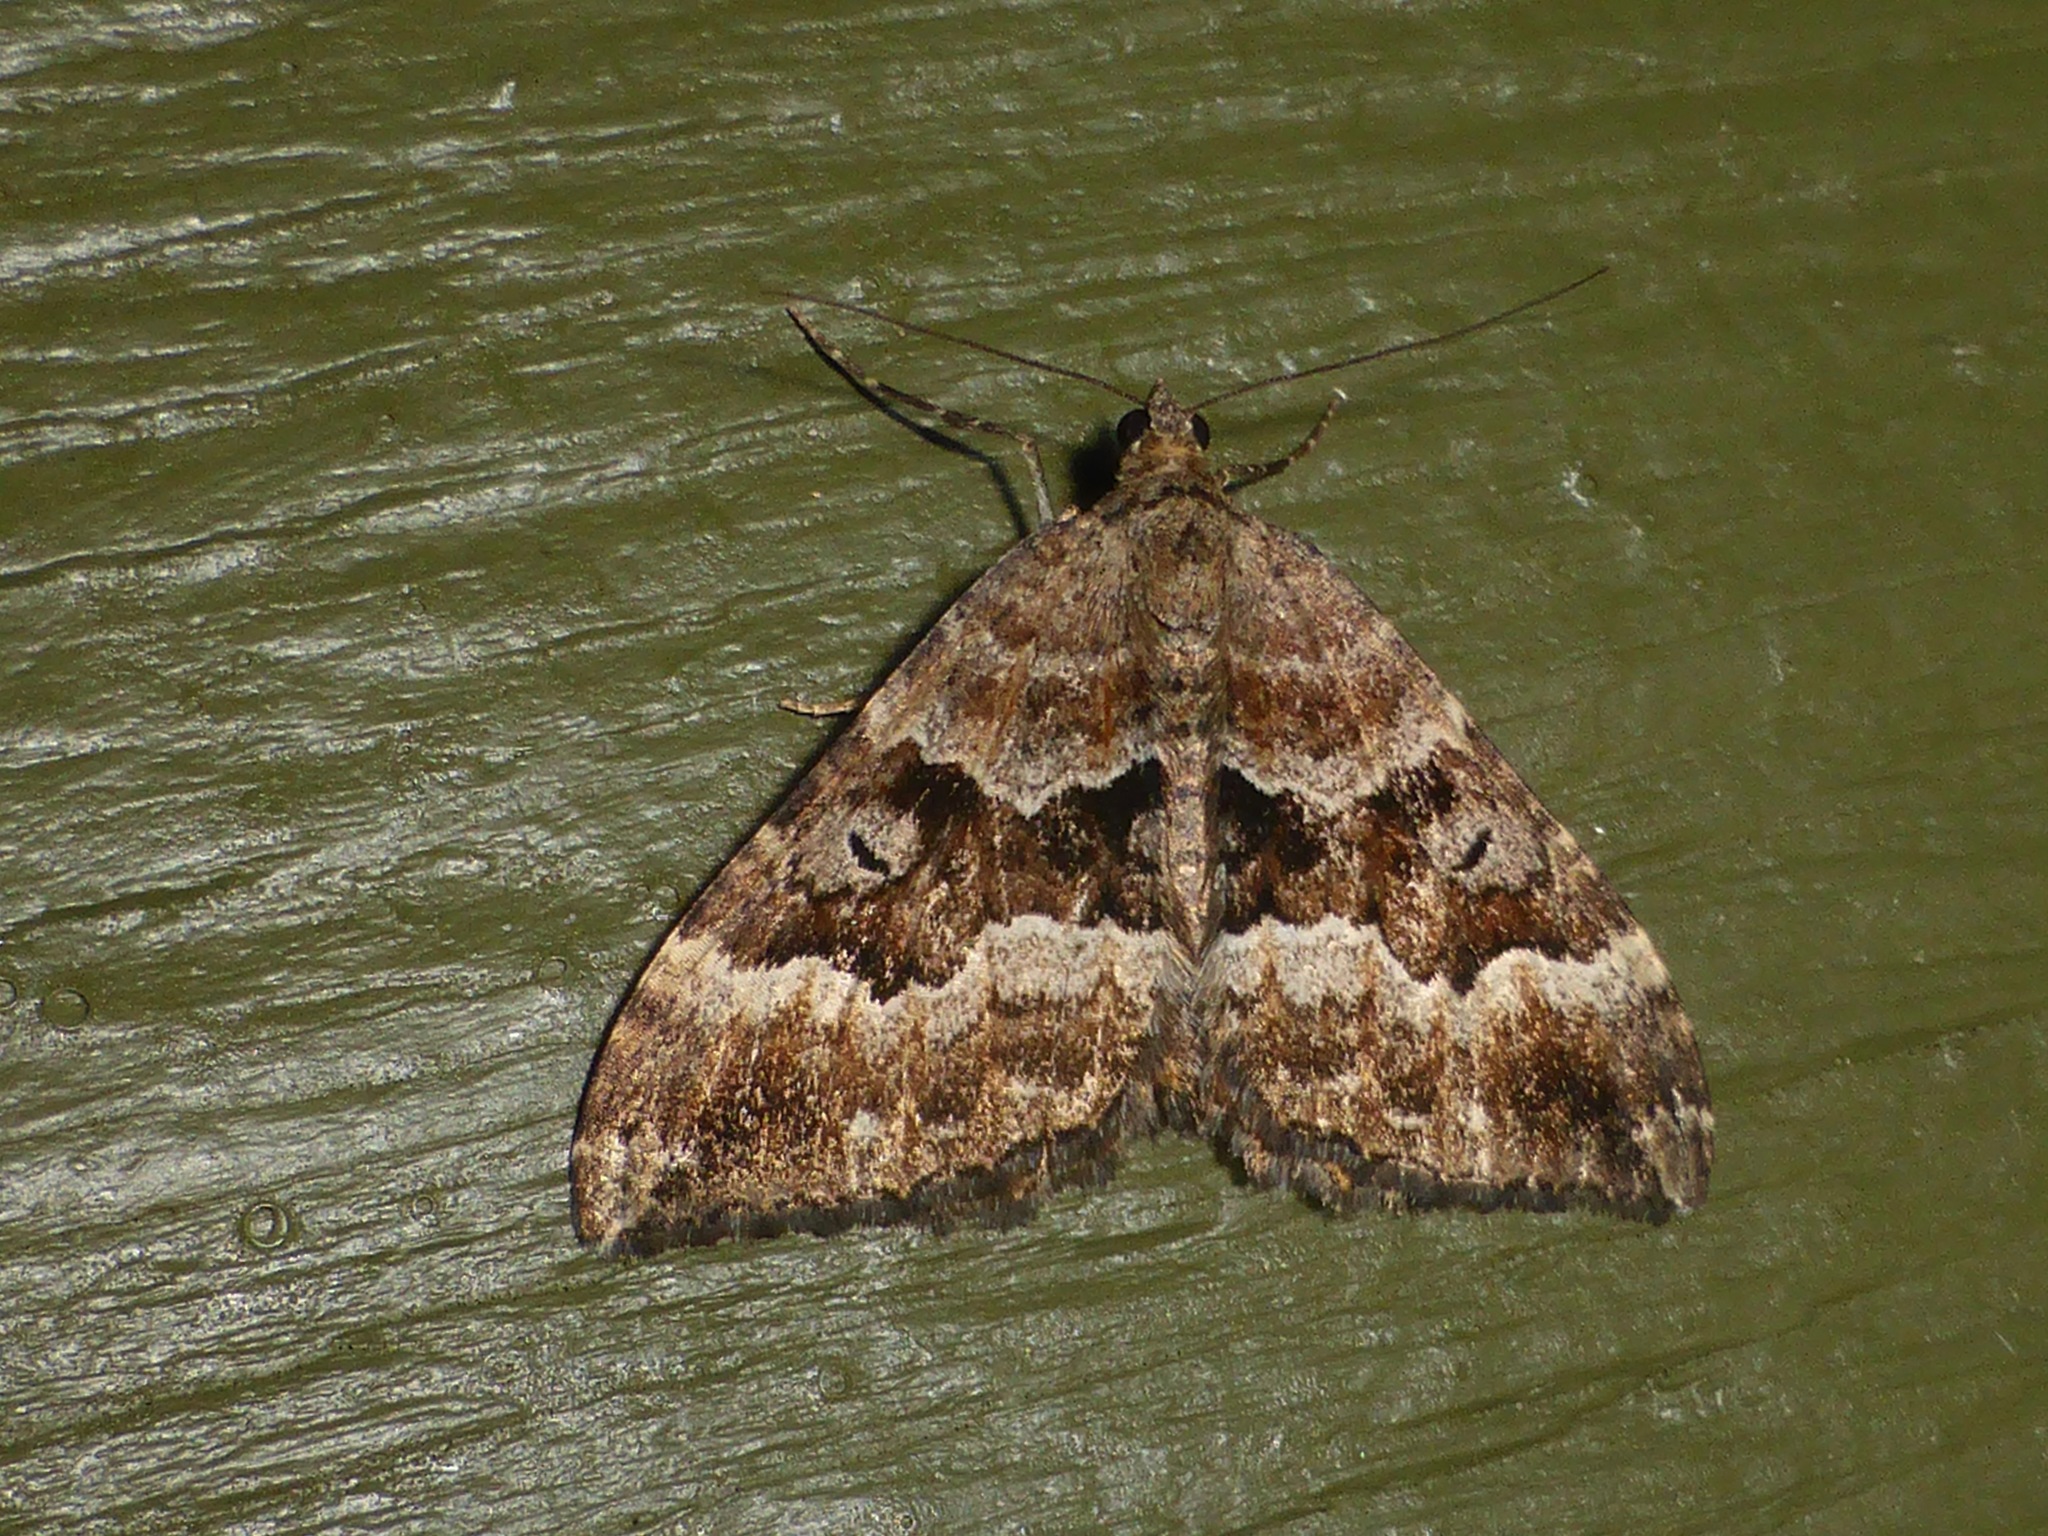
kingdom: Animalia
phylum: Arthropoda
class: Insecta
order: Lepidoptera
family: Geometridae
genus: Hydriomena
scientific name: Hydriomena deltoidata
